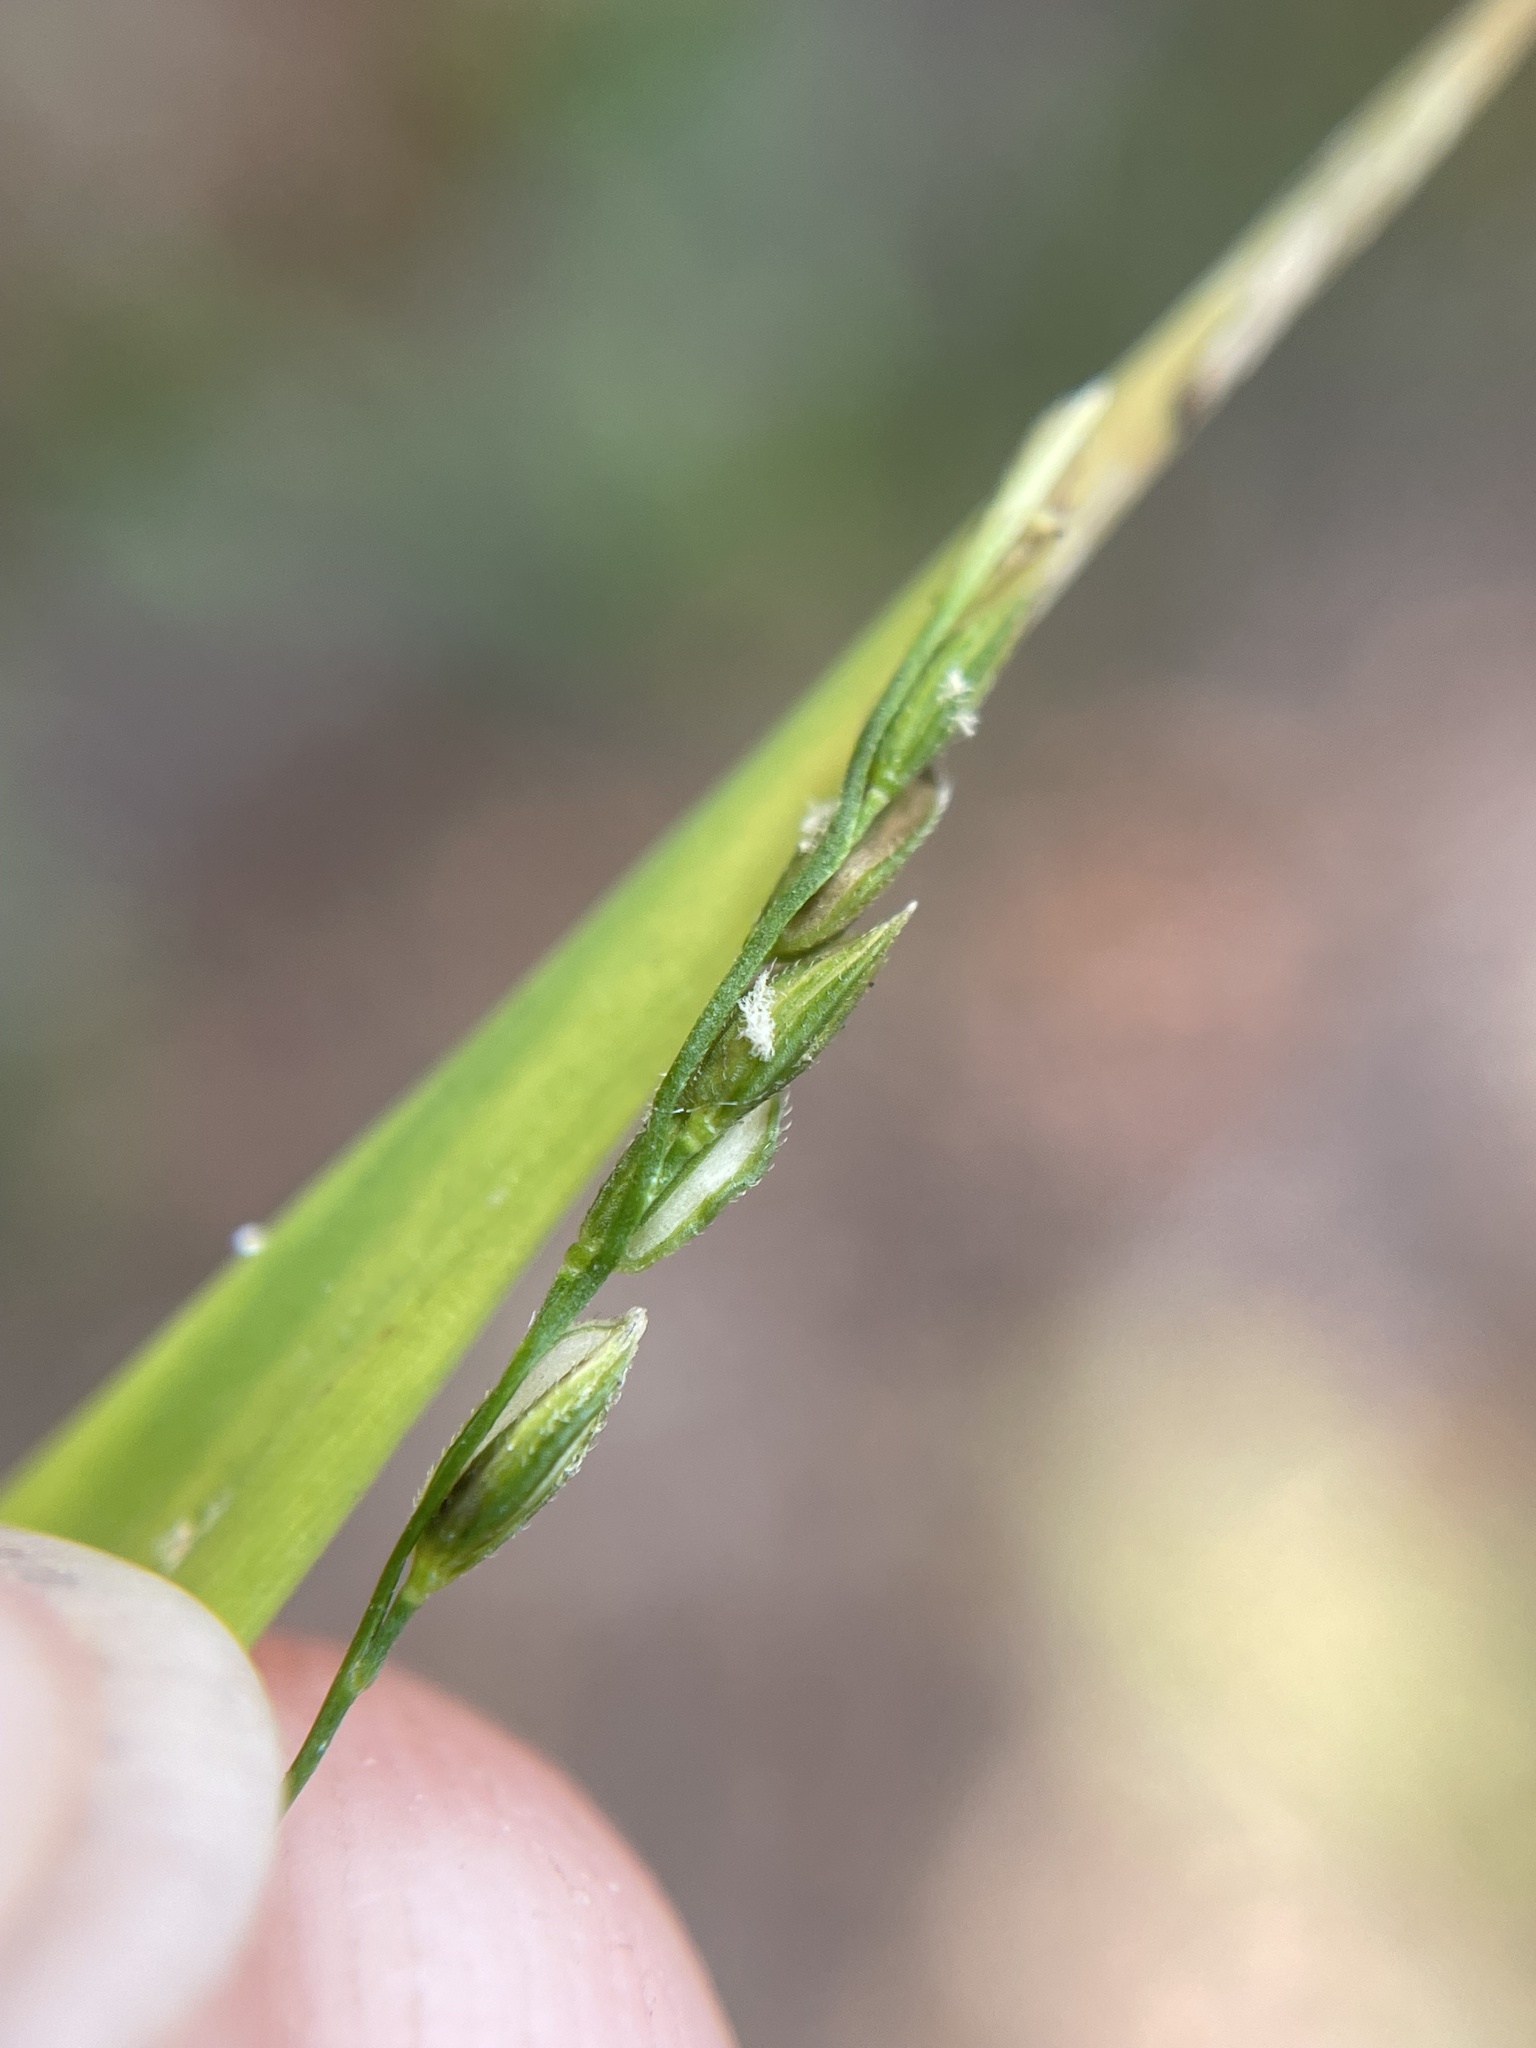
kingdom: Plantae
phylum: Tracheophyta
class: Liliopsida
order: Poales
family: Poaceae
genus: Leersia
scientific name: Leersia virginica
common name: White cutgrass
